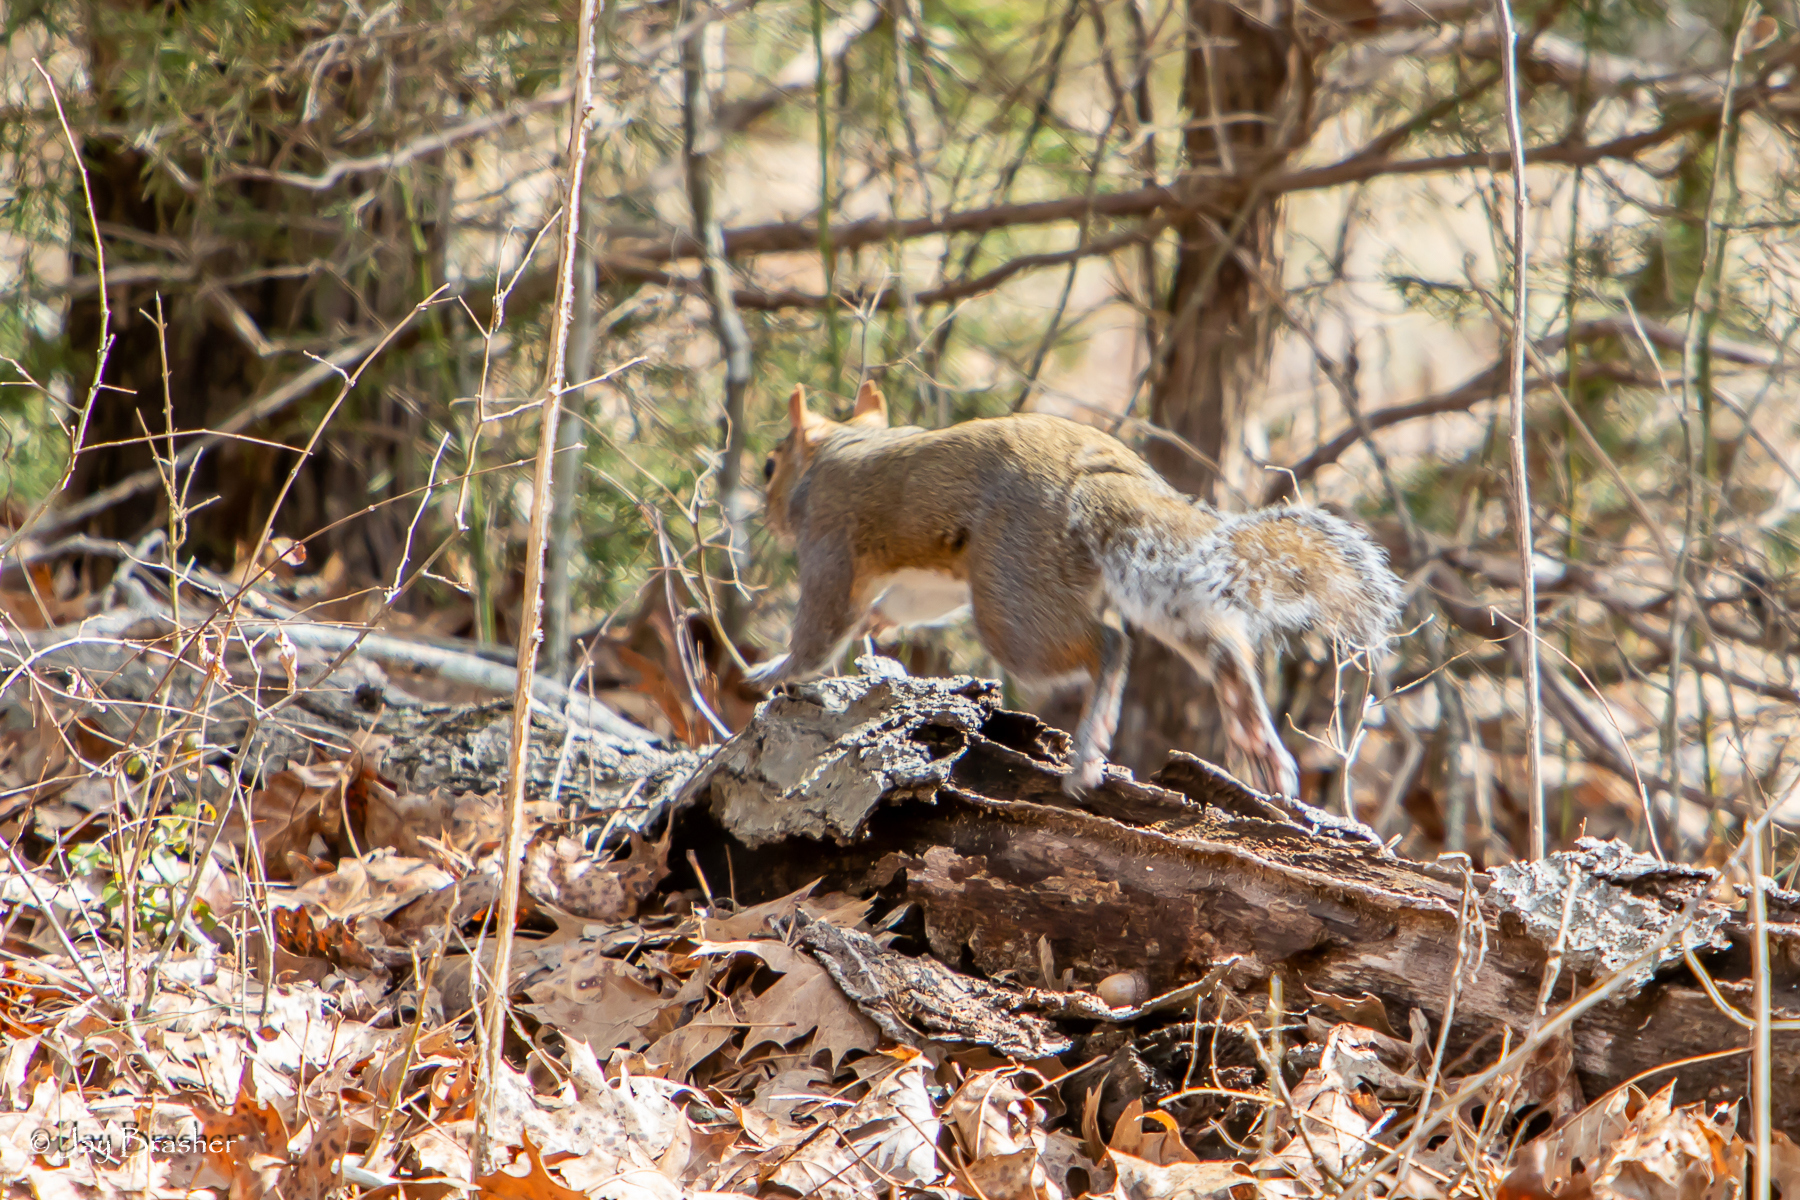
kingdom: Animalia
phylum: Chordata
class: Mammalia
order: Rodentia
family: Sciuridae
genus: Sciurus
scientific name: Sciurus carolinensis
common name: Eastern gray squirrel
